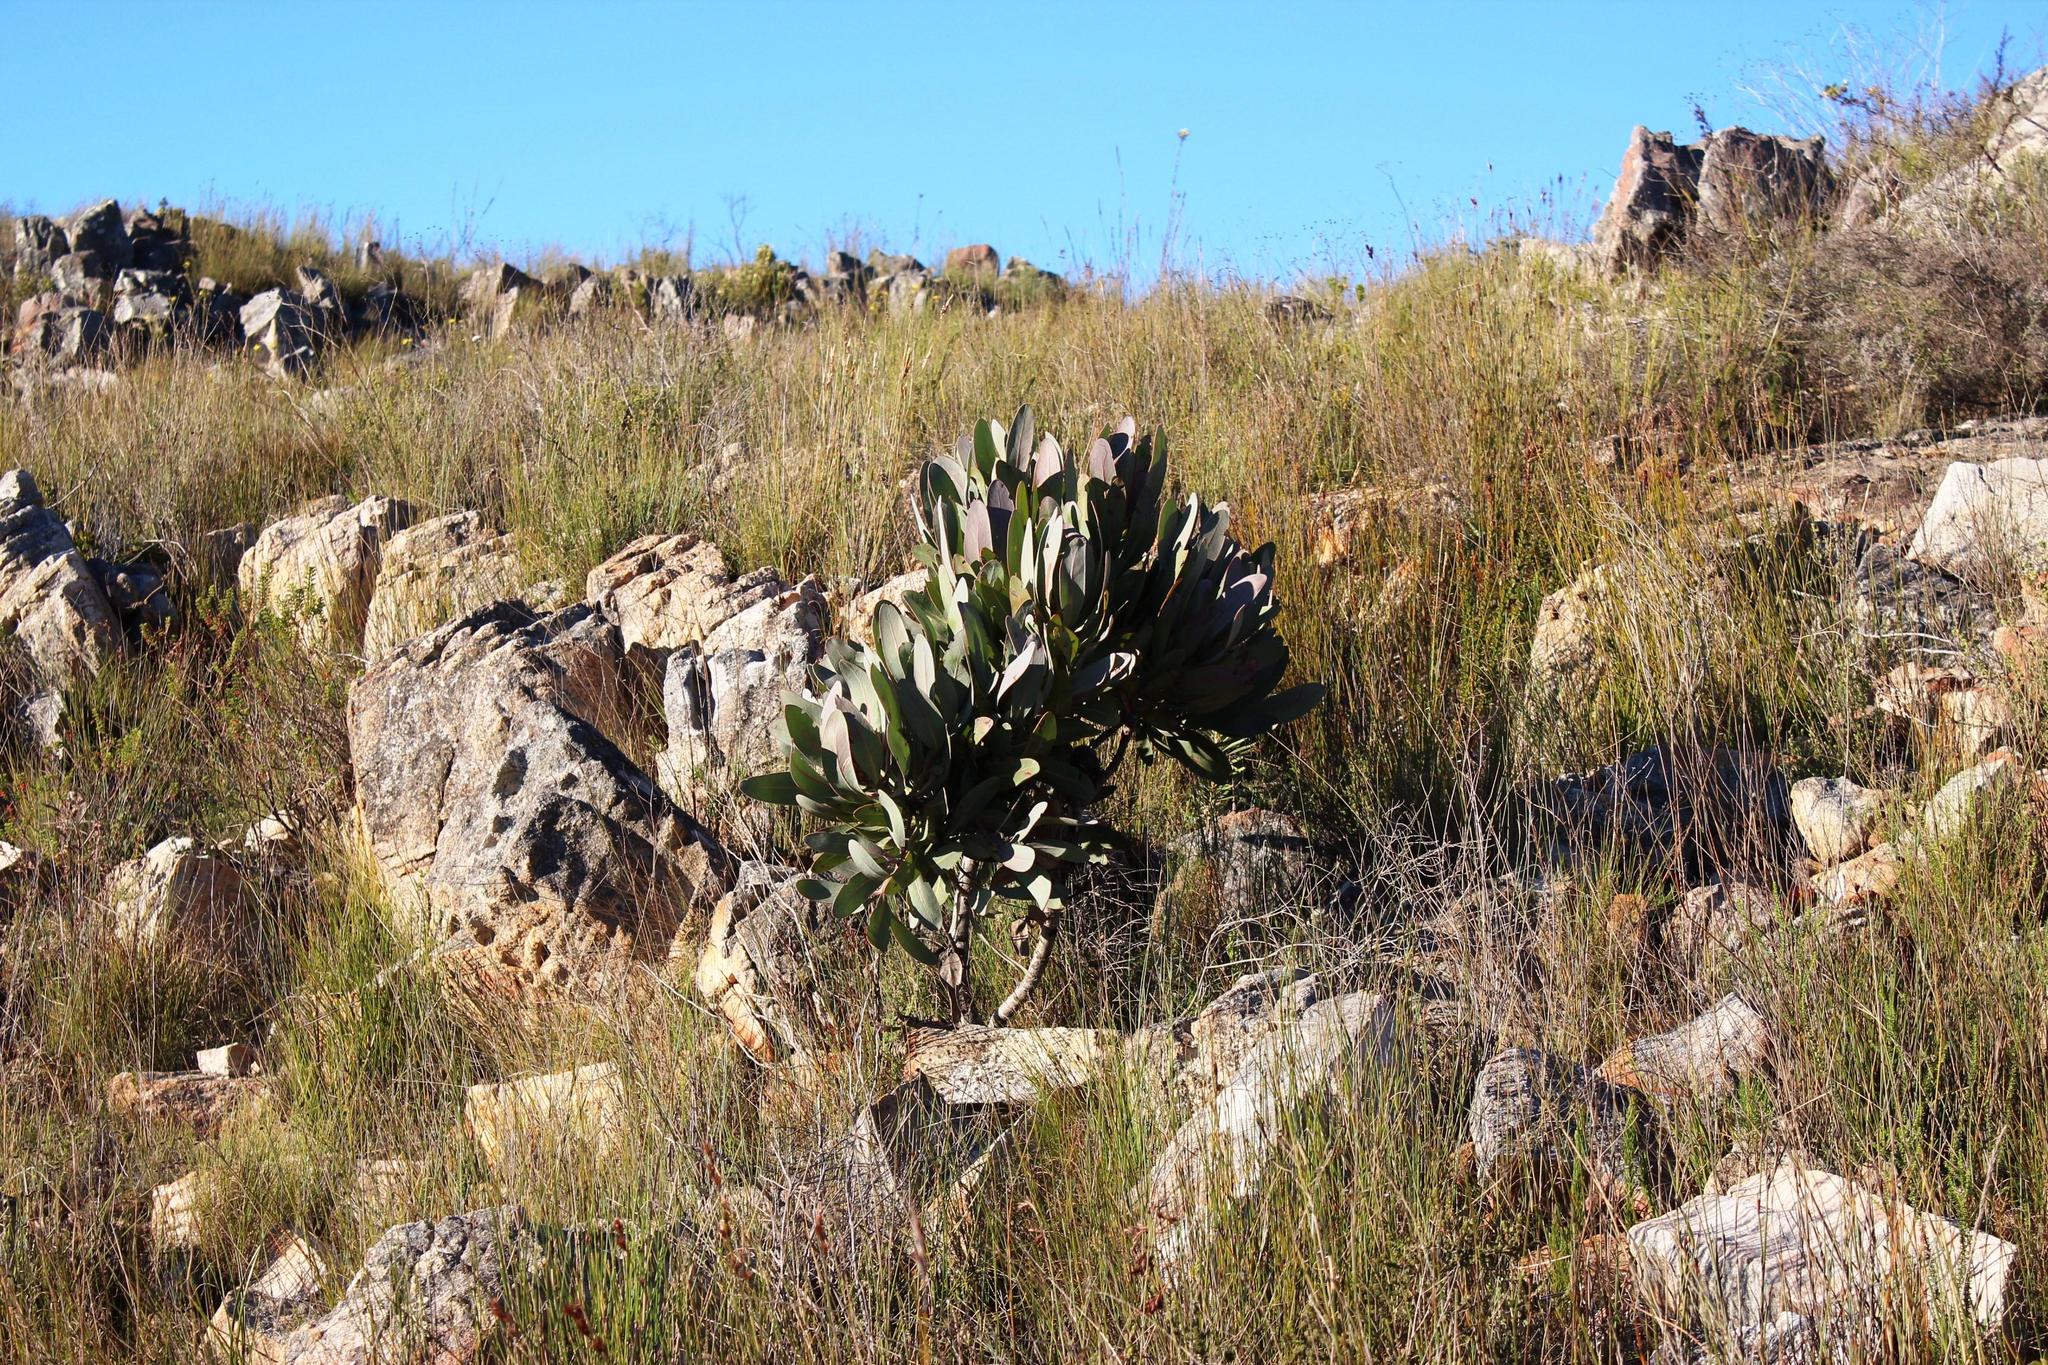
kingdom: Plantae
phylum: Tracheophyta
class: Magnoliopsida
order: Proteales
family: Proteaceae
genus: Protea
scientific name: Protea lorifolia
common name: Strap-leaved protea
